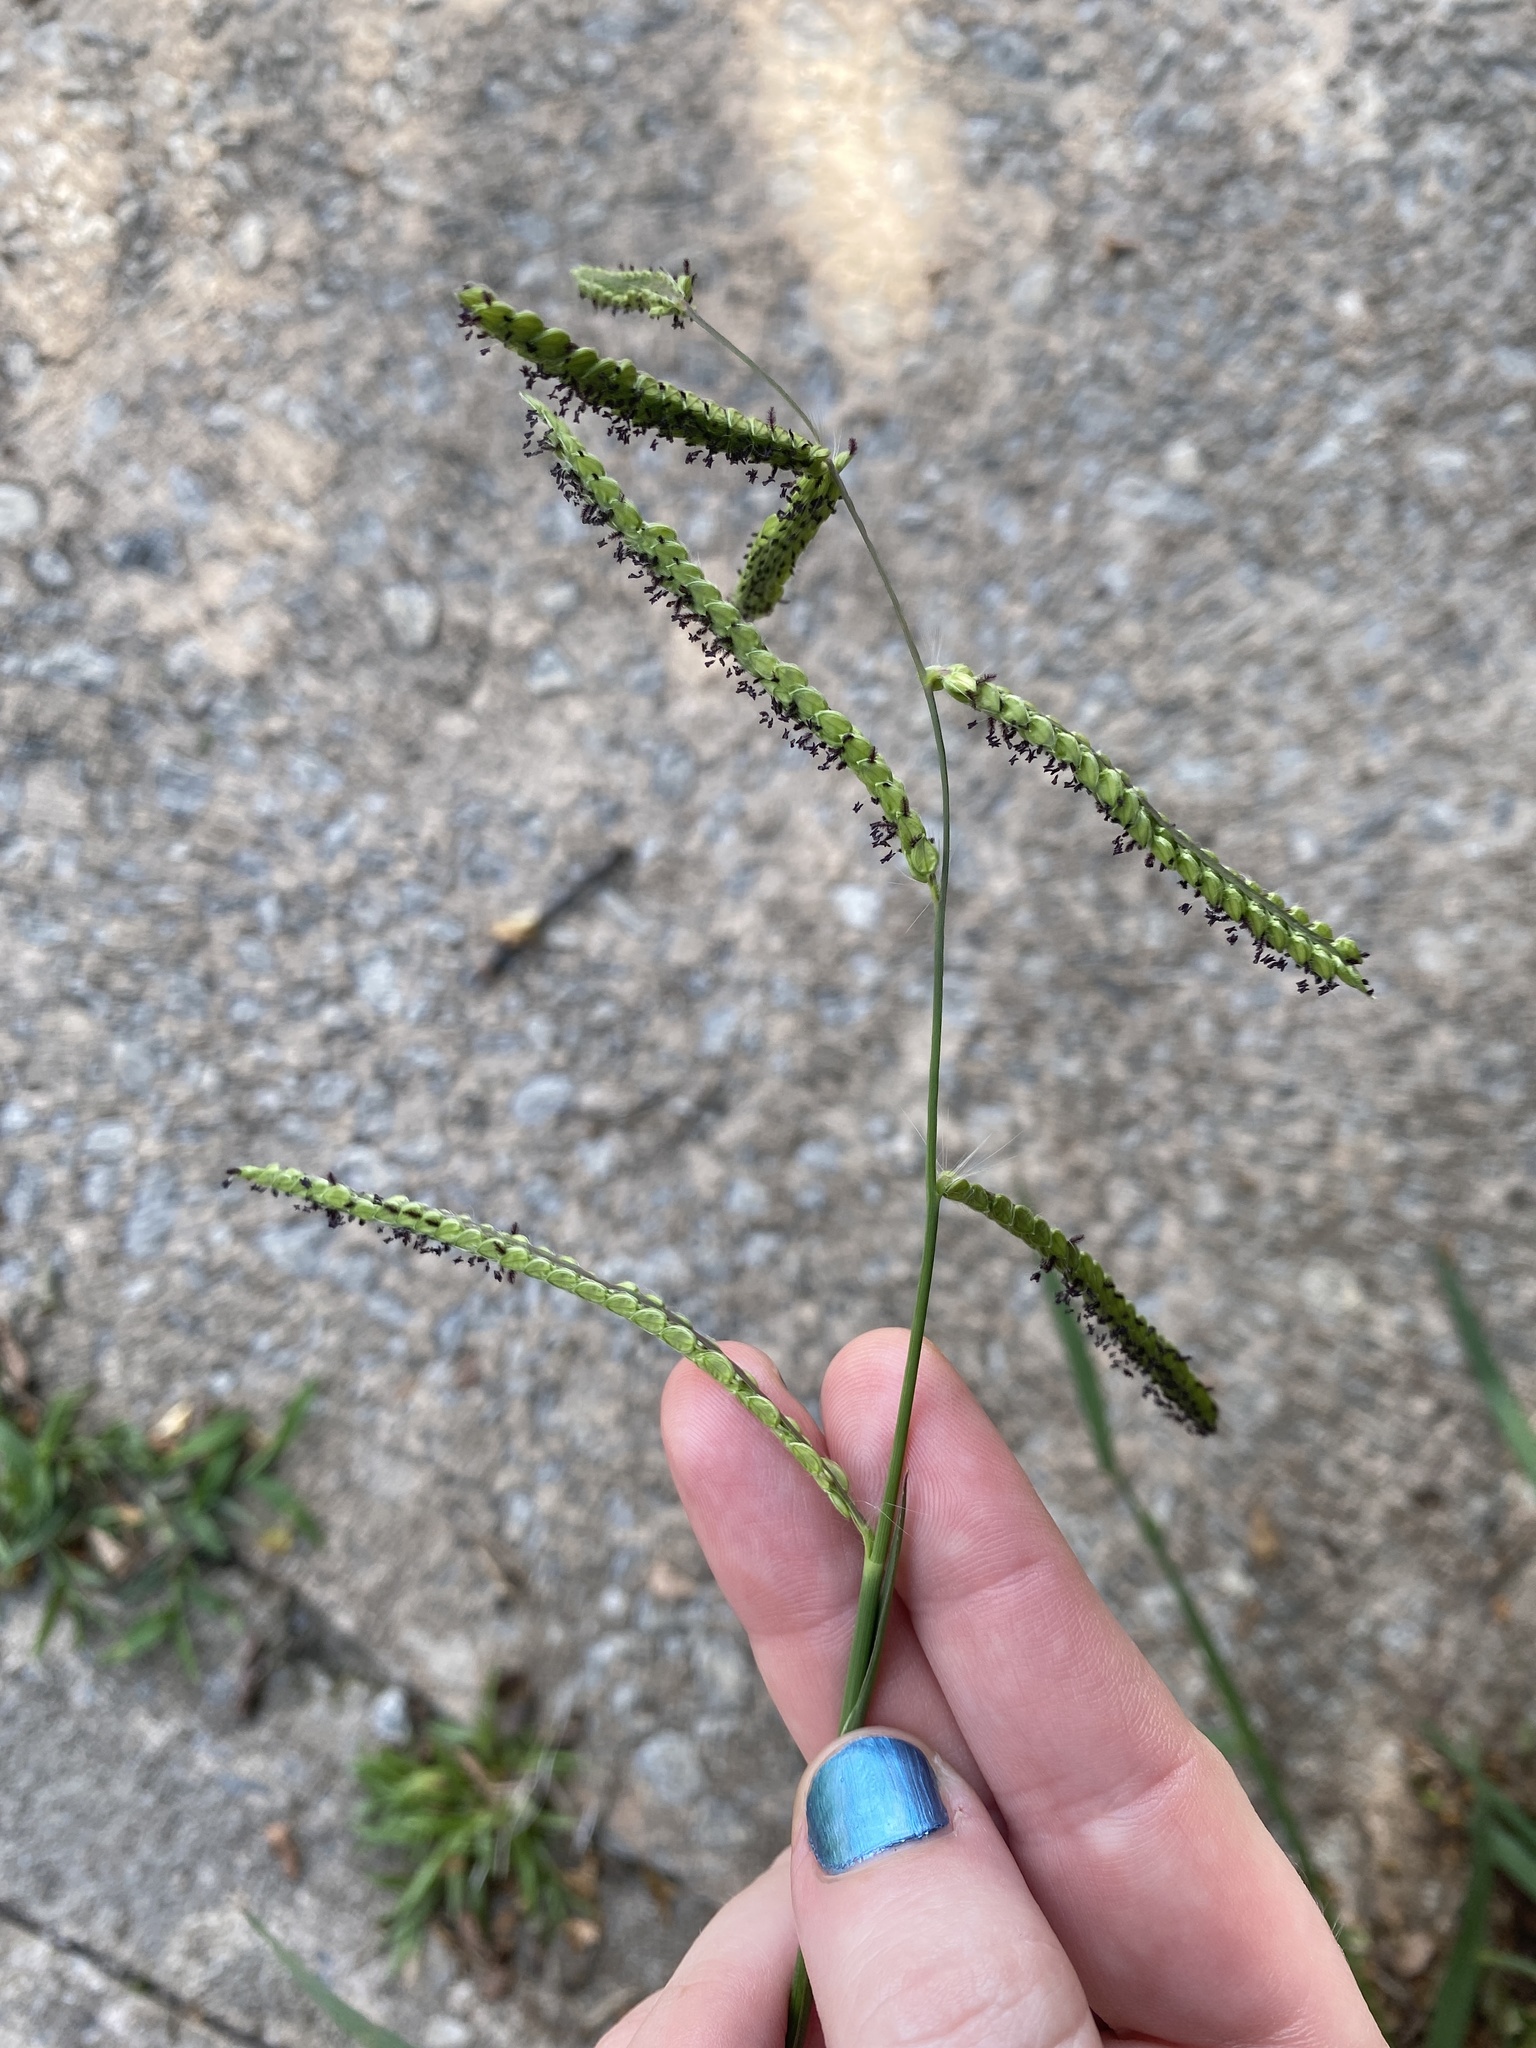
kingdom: Plantae
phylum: Tracheophyta
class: Liliopsida
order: Poales
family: Poaceae
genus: Paspalum
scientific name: Paspalum dilatatum
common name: Dallisgrass
